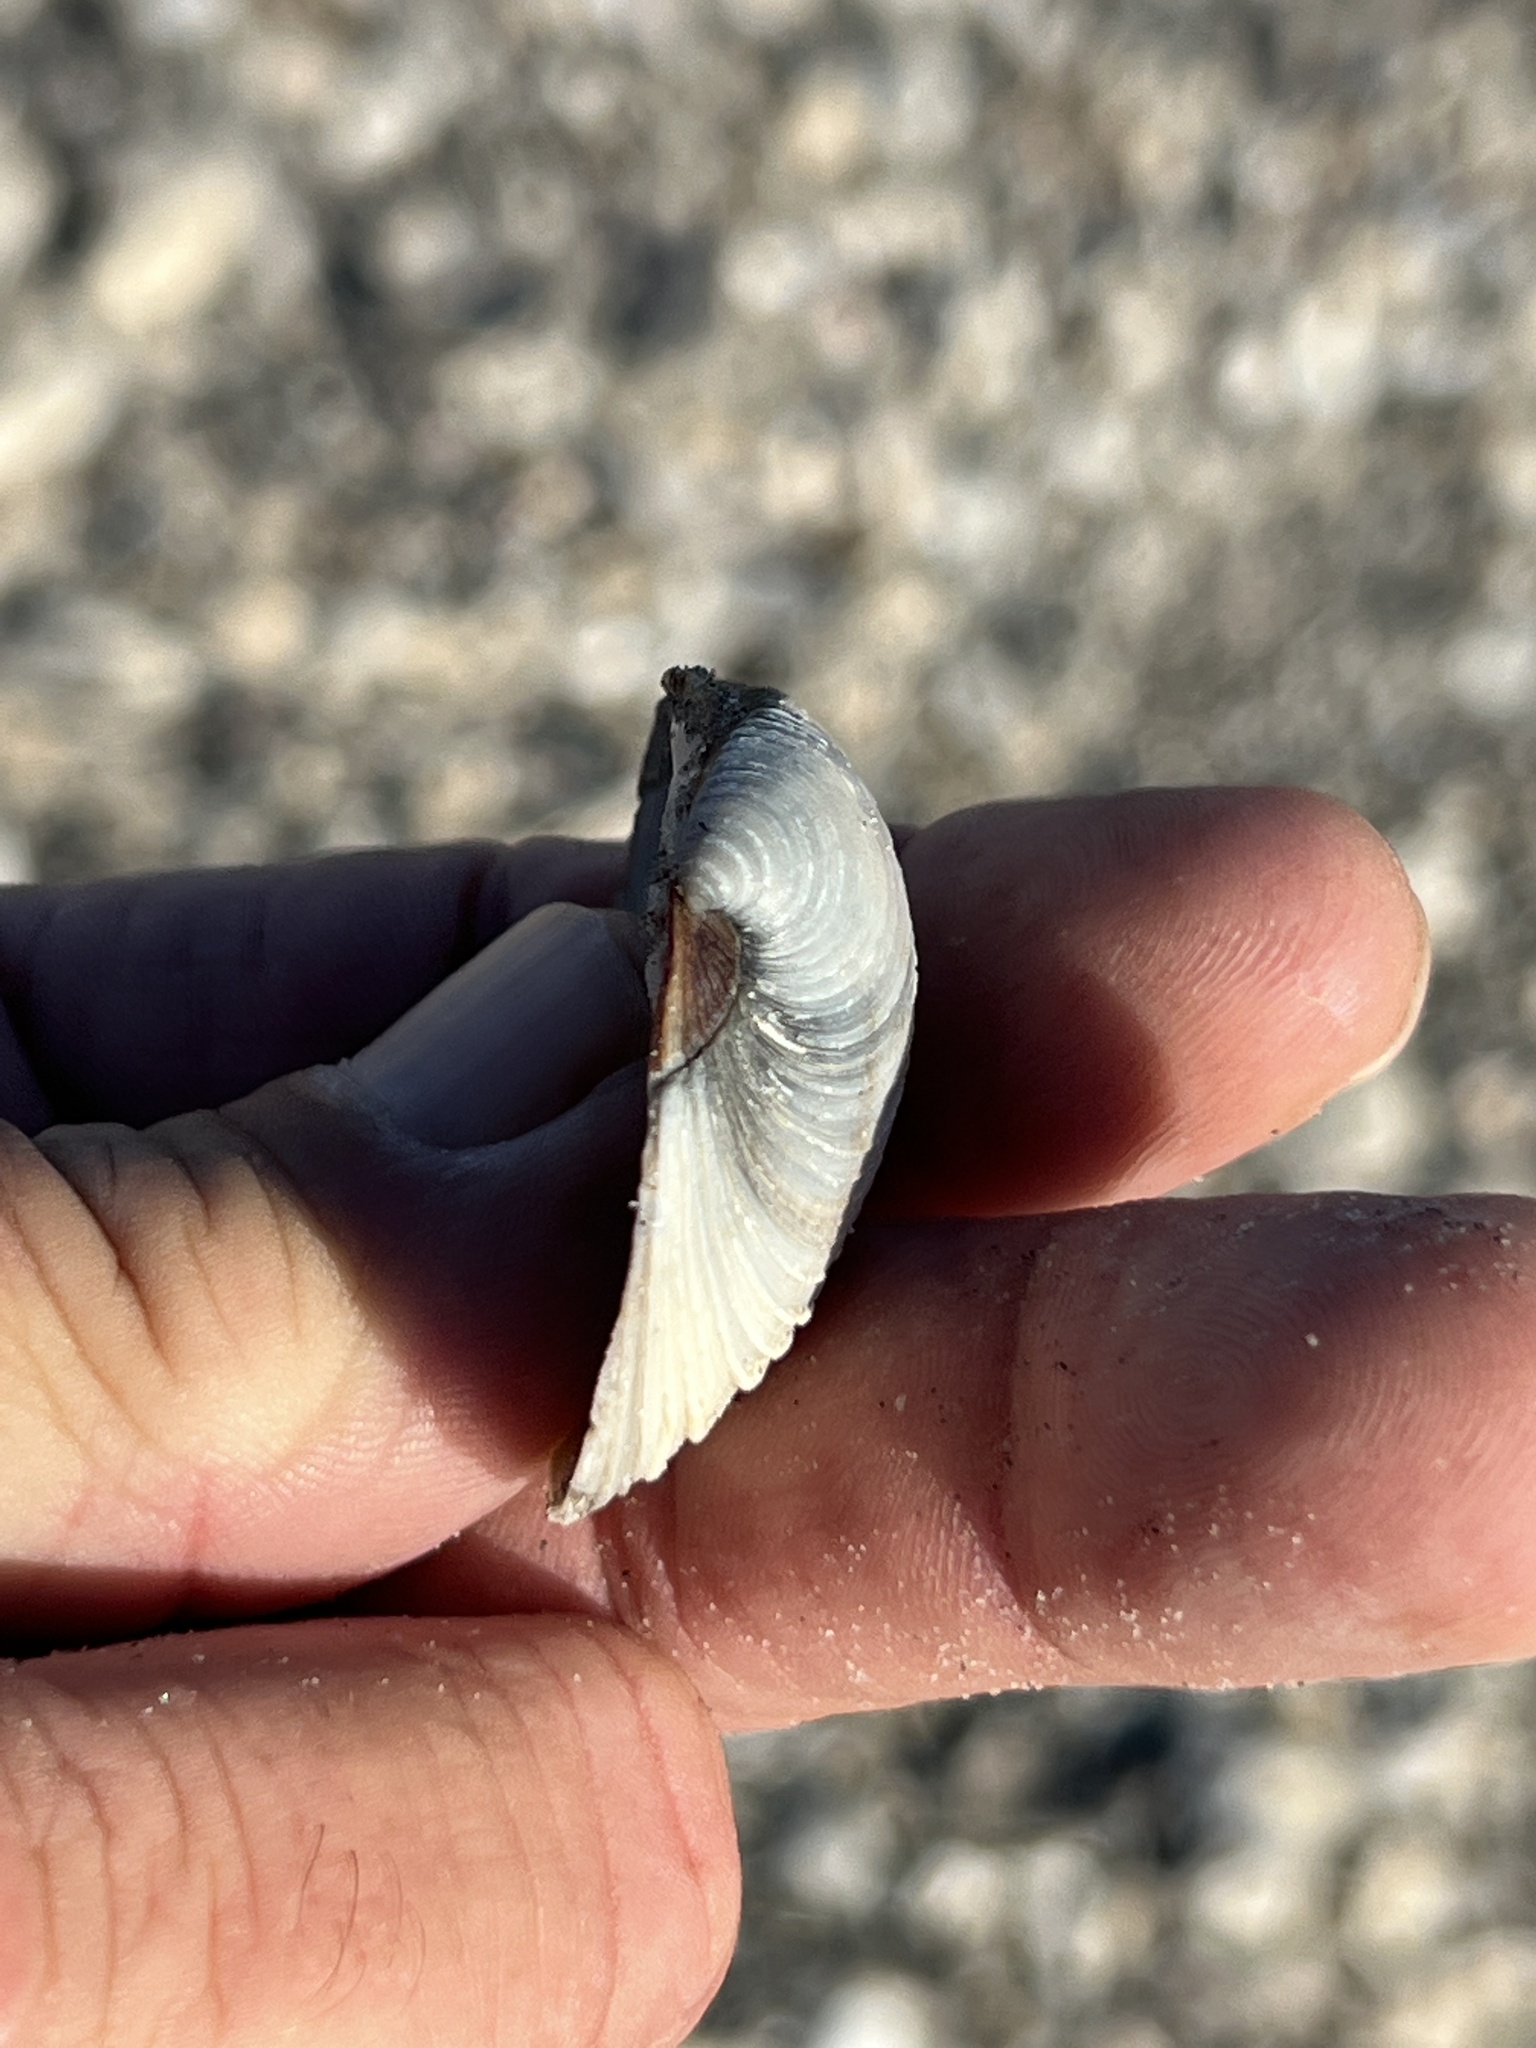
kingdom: Animalia
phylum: Mollusca
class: Bivalvia
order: Venerida
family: Veneridae
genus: Mercenaria
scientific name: Mercenaria campechiensis
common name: Südliche quahog-muschel
